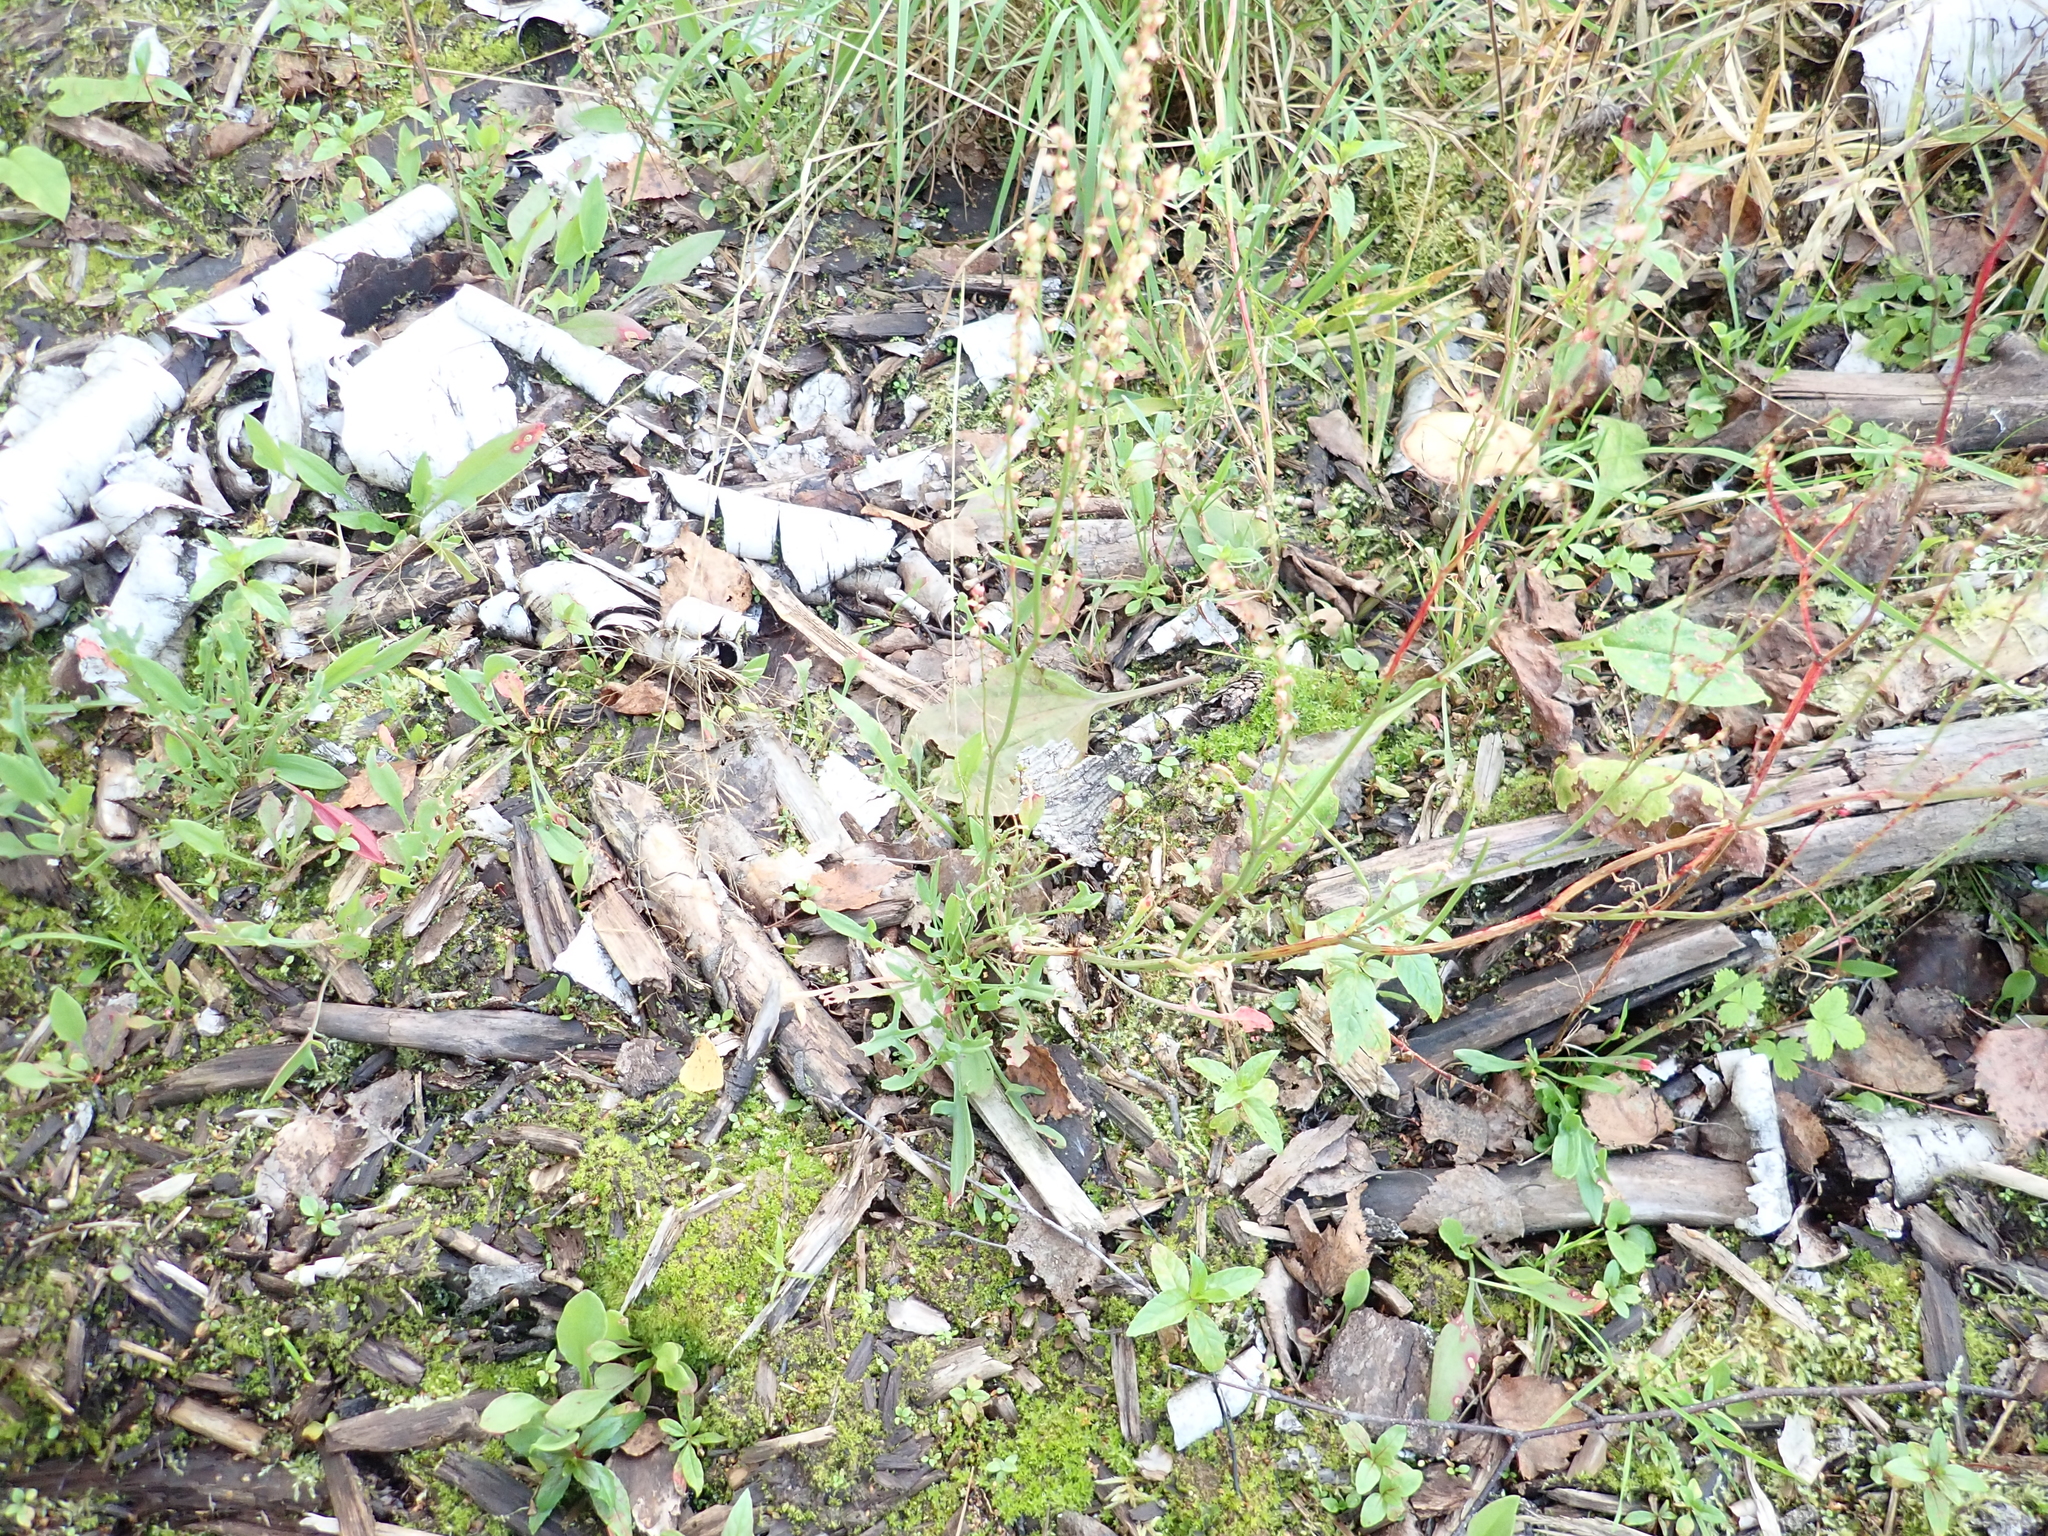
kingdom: Plantae
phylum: Tracheophyta
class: Magnoliopsida
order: Caryophyllales
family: Polygonaceae
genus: Rumex
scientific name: Rumex acetosella
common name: Common sheep sorrel
